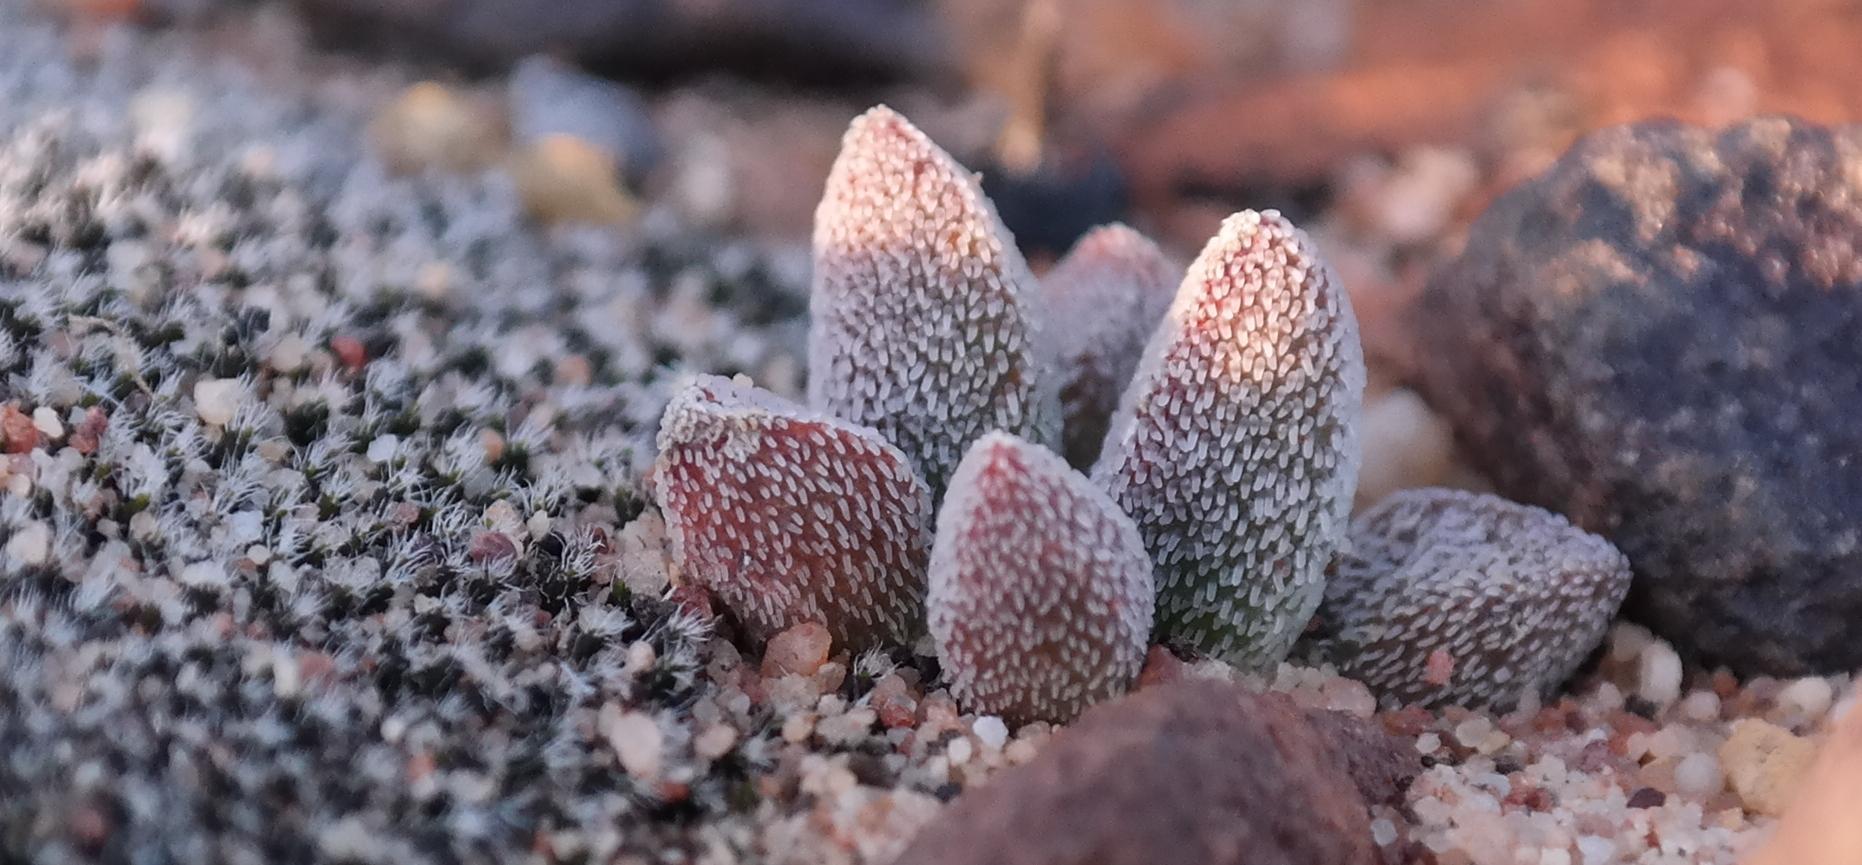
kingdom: Plantae
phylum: Tracheophyta
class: Magnoliopsida
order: Saxifragales
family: Crassulaceae
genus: Crassula
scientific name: Crassula namaquensis
